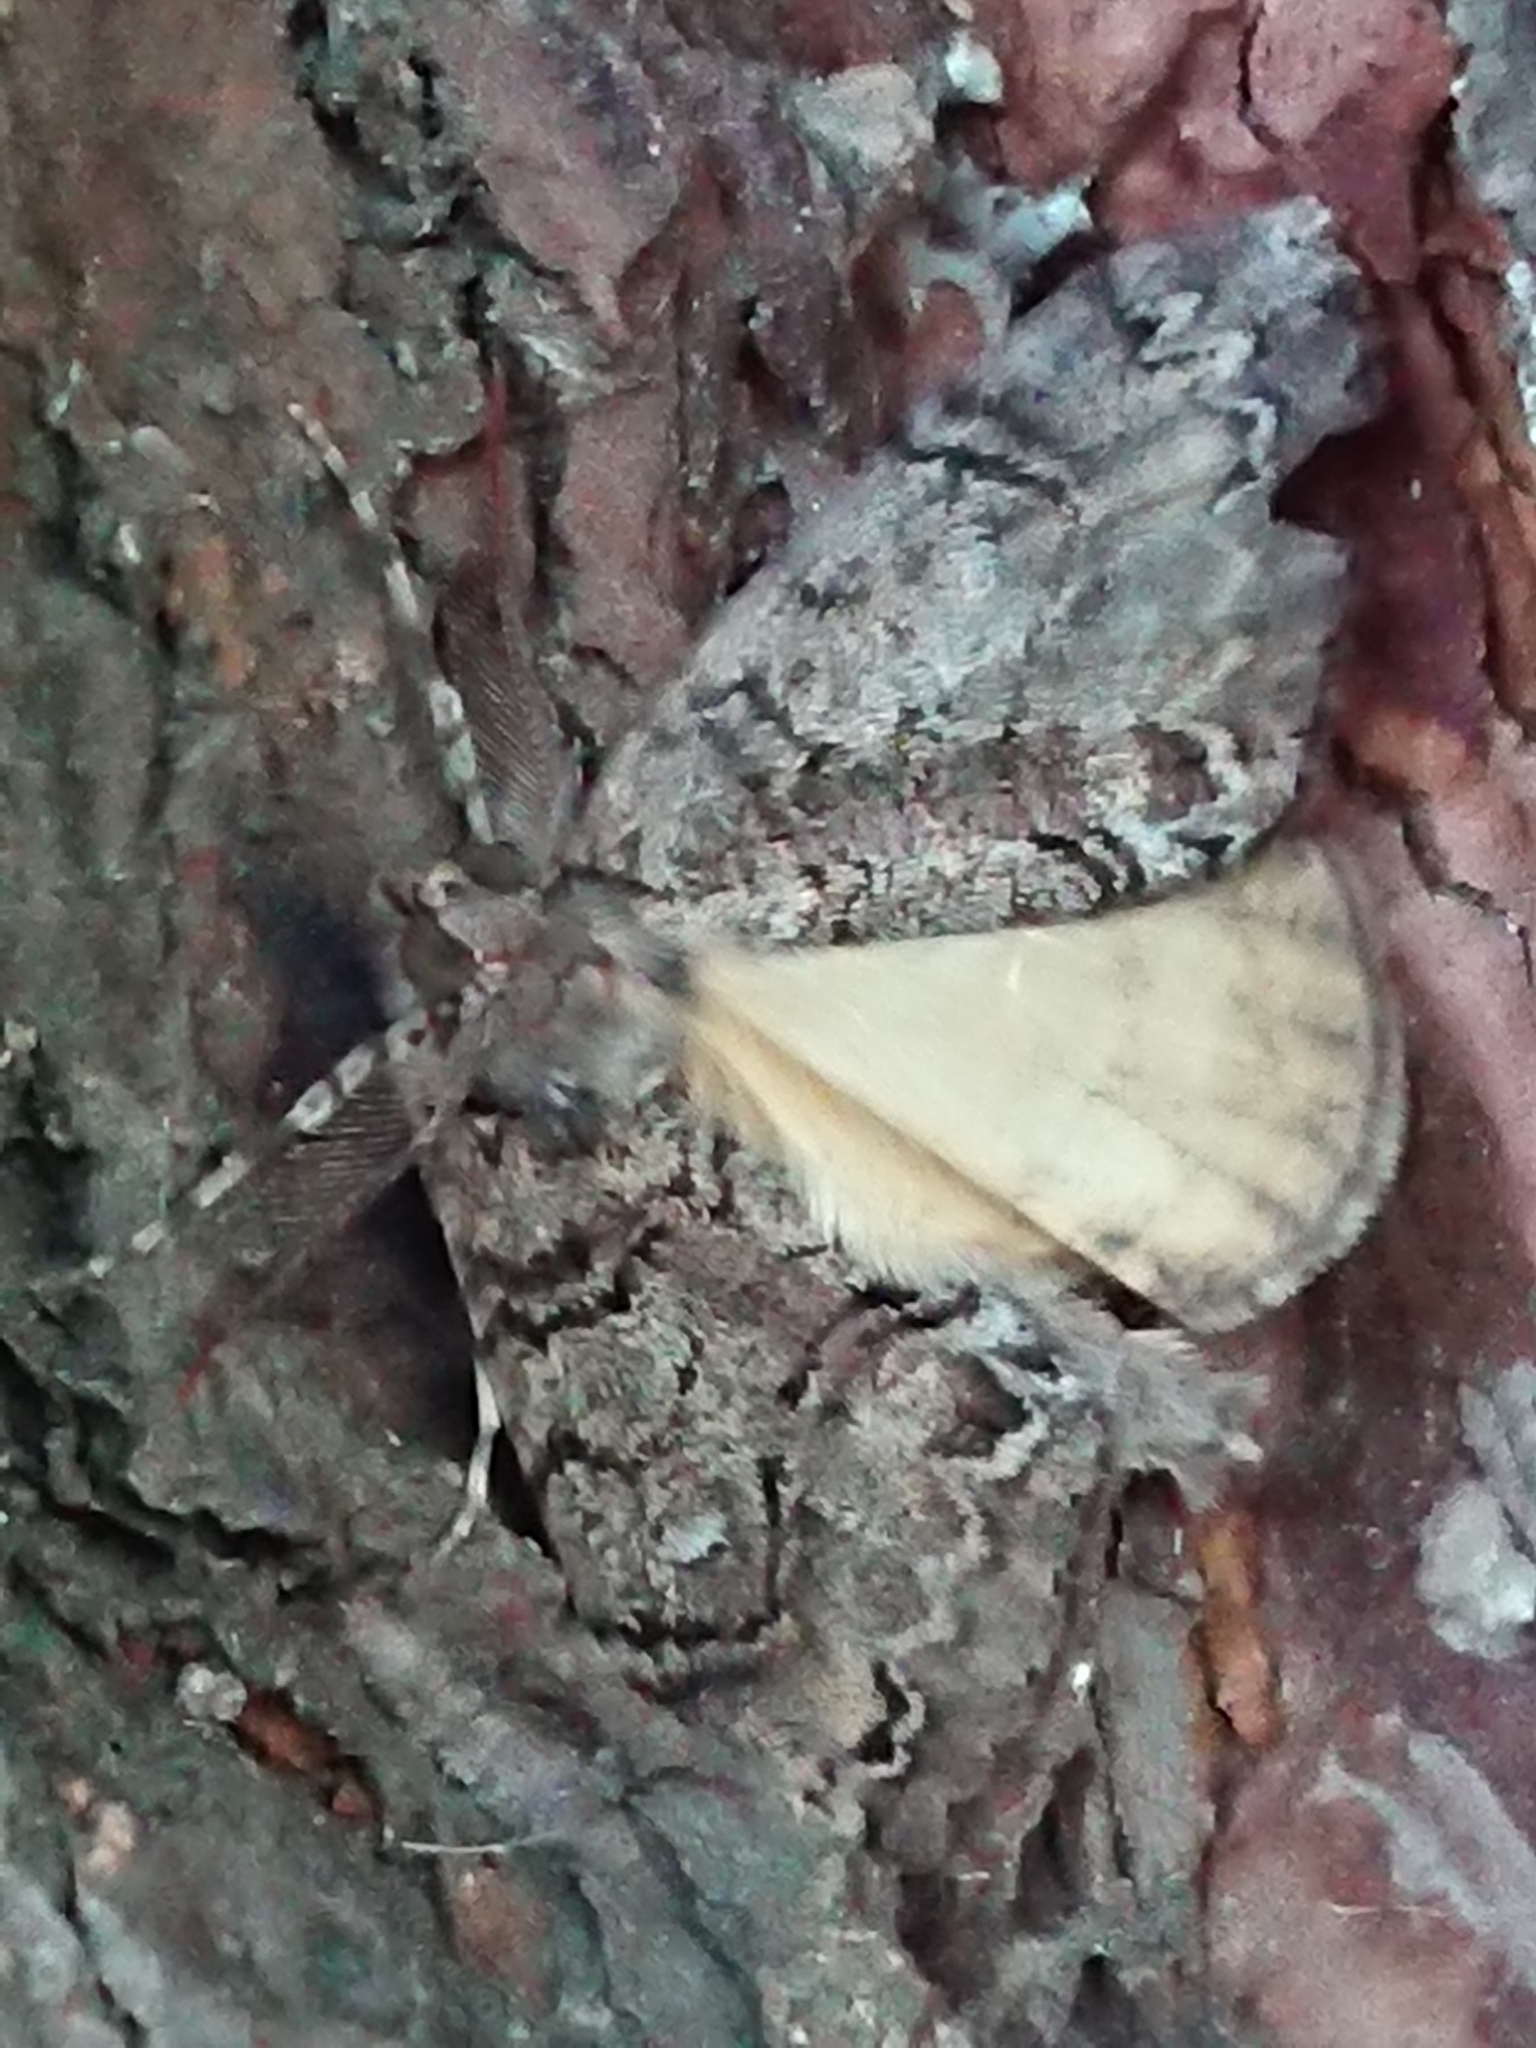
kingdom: Animalia
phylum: Arthropoda
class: Insecta
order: Lepidoptera
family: Geometridae
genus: Pseudocoremia
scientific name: Pseudocoremia suavis
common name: Common forest looper
